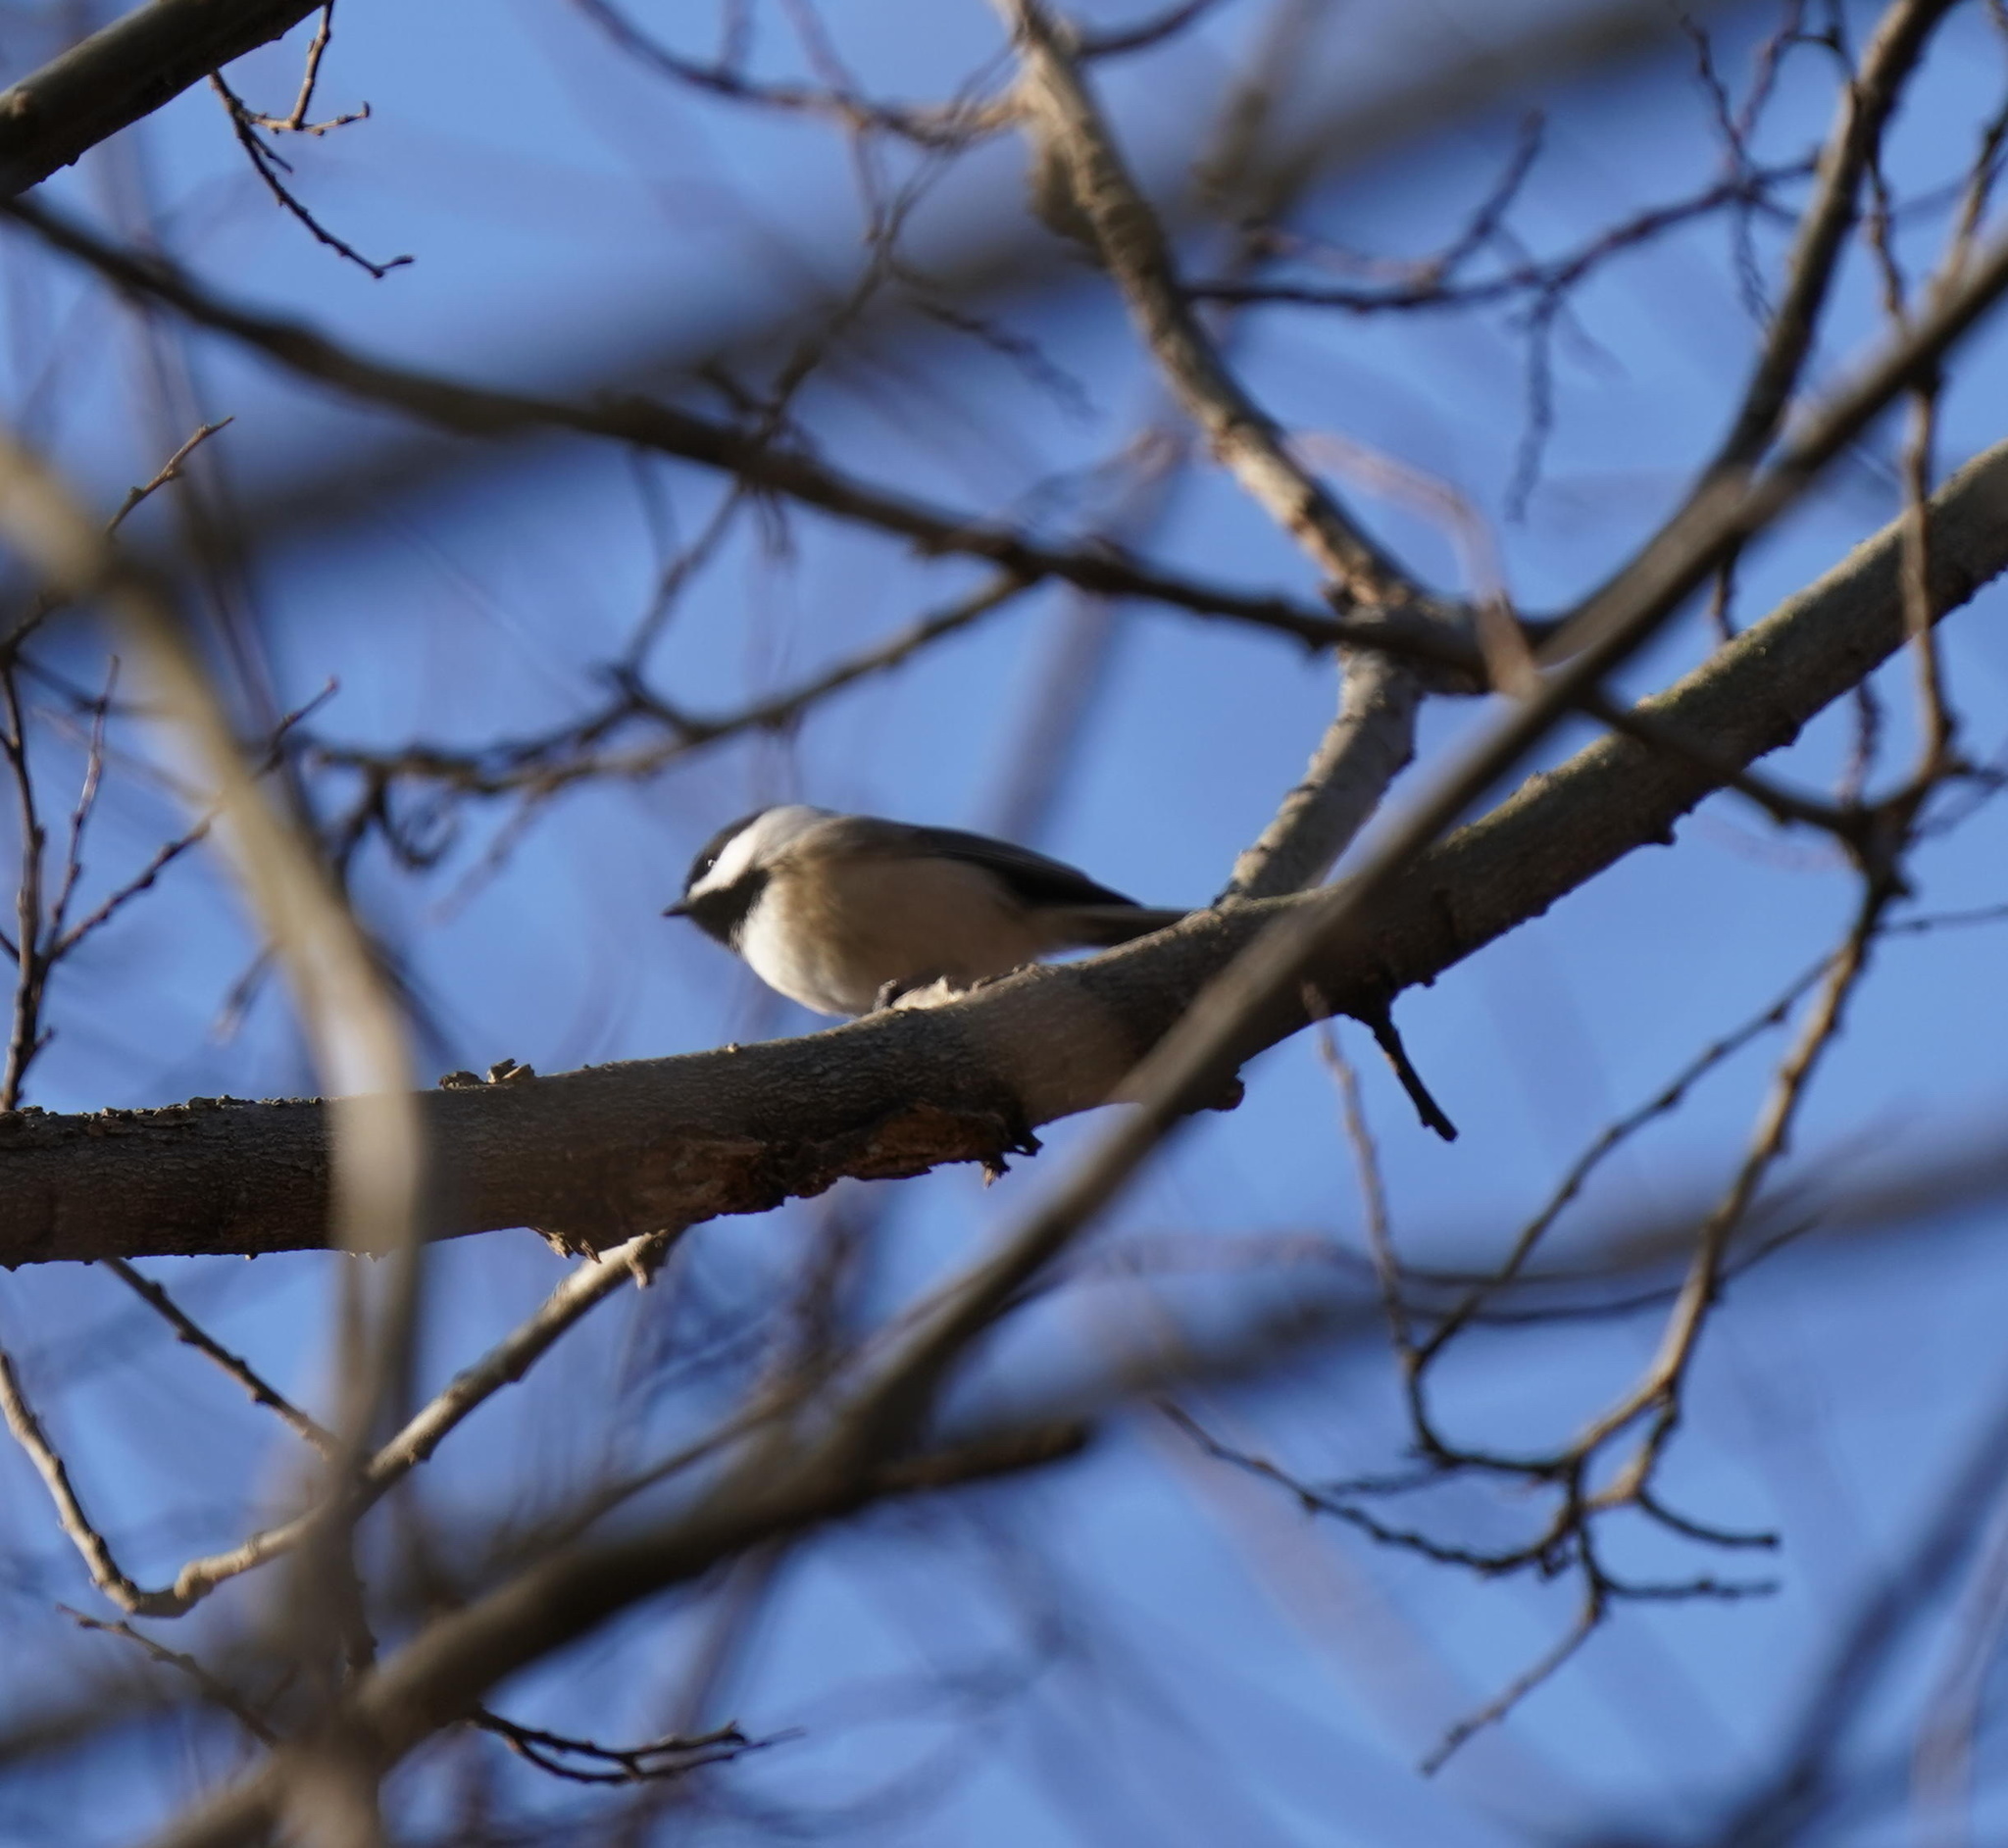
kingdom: Animalia
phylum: Chordata
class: Aves
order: Passeriformes
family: Paridae
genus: Poecile
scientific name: Poecile atricapillus
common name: Black-capped chickadee
